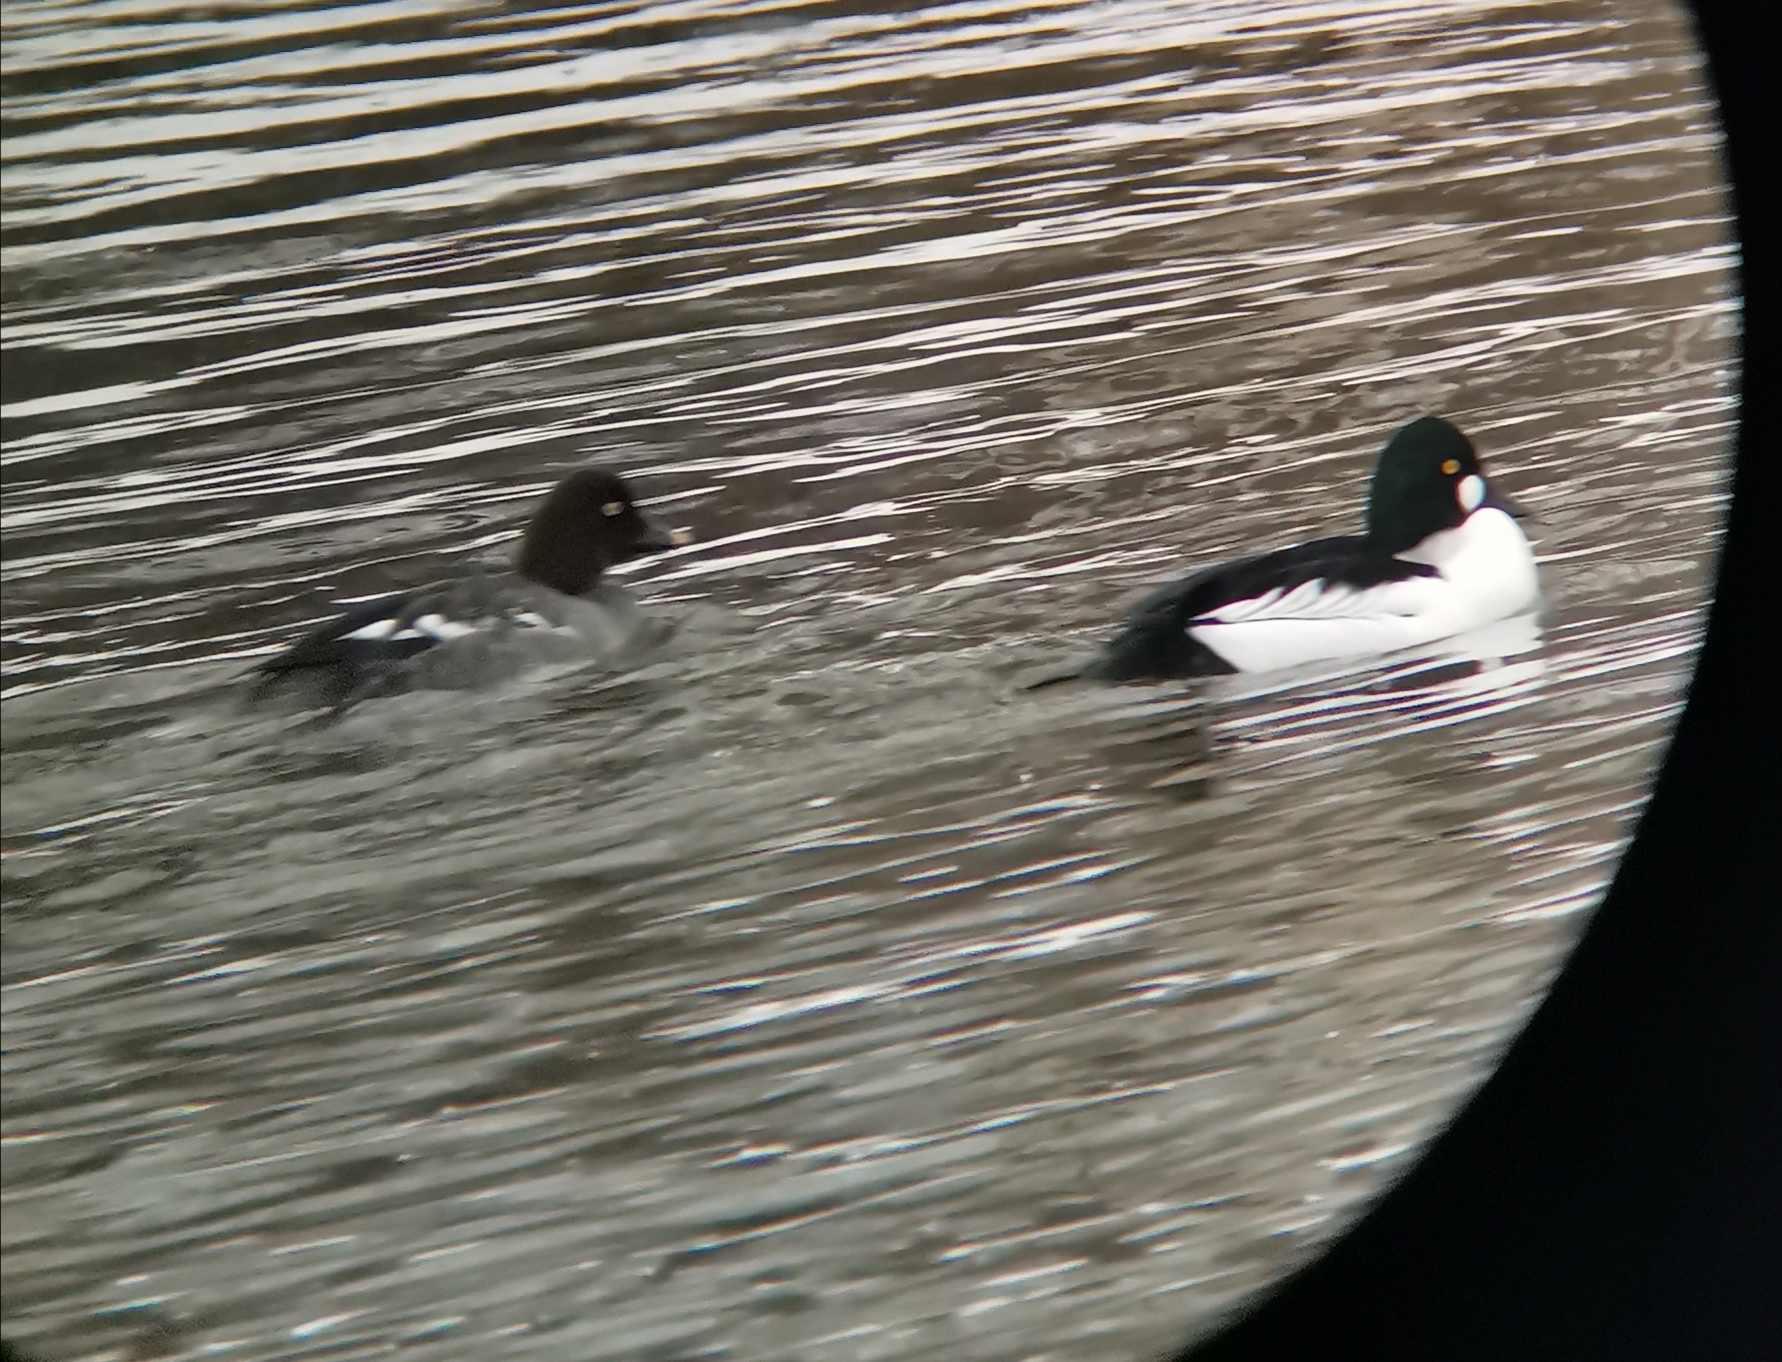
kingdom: Animalia
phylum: Chordata
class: Aves
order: Anseriformes
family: Anatidae
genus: Bucephala
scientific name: Bucephala clangula
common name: Common goldeneye
